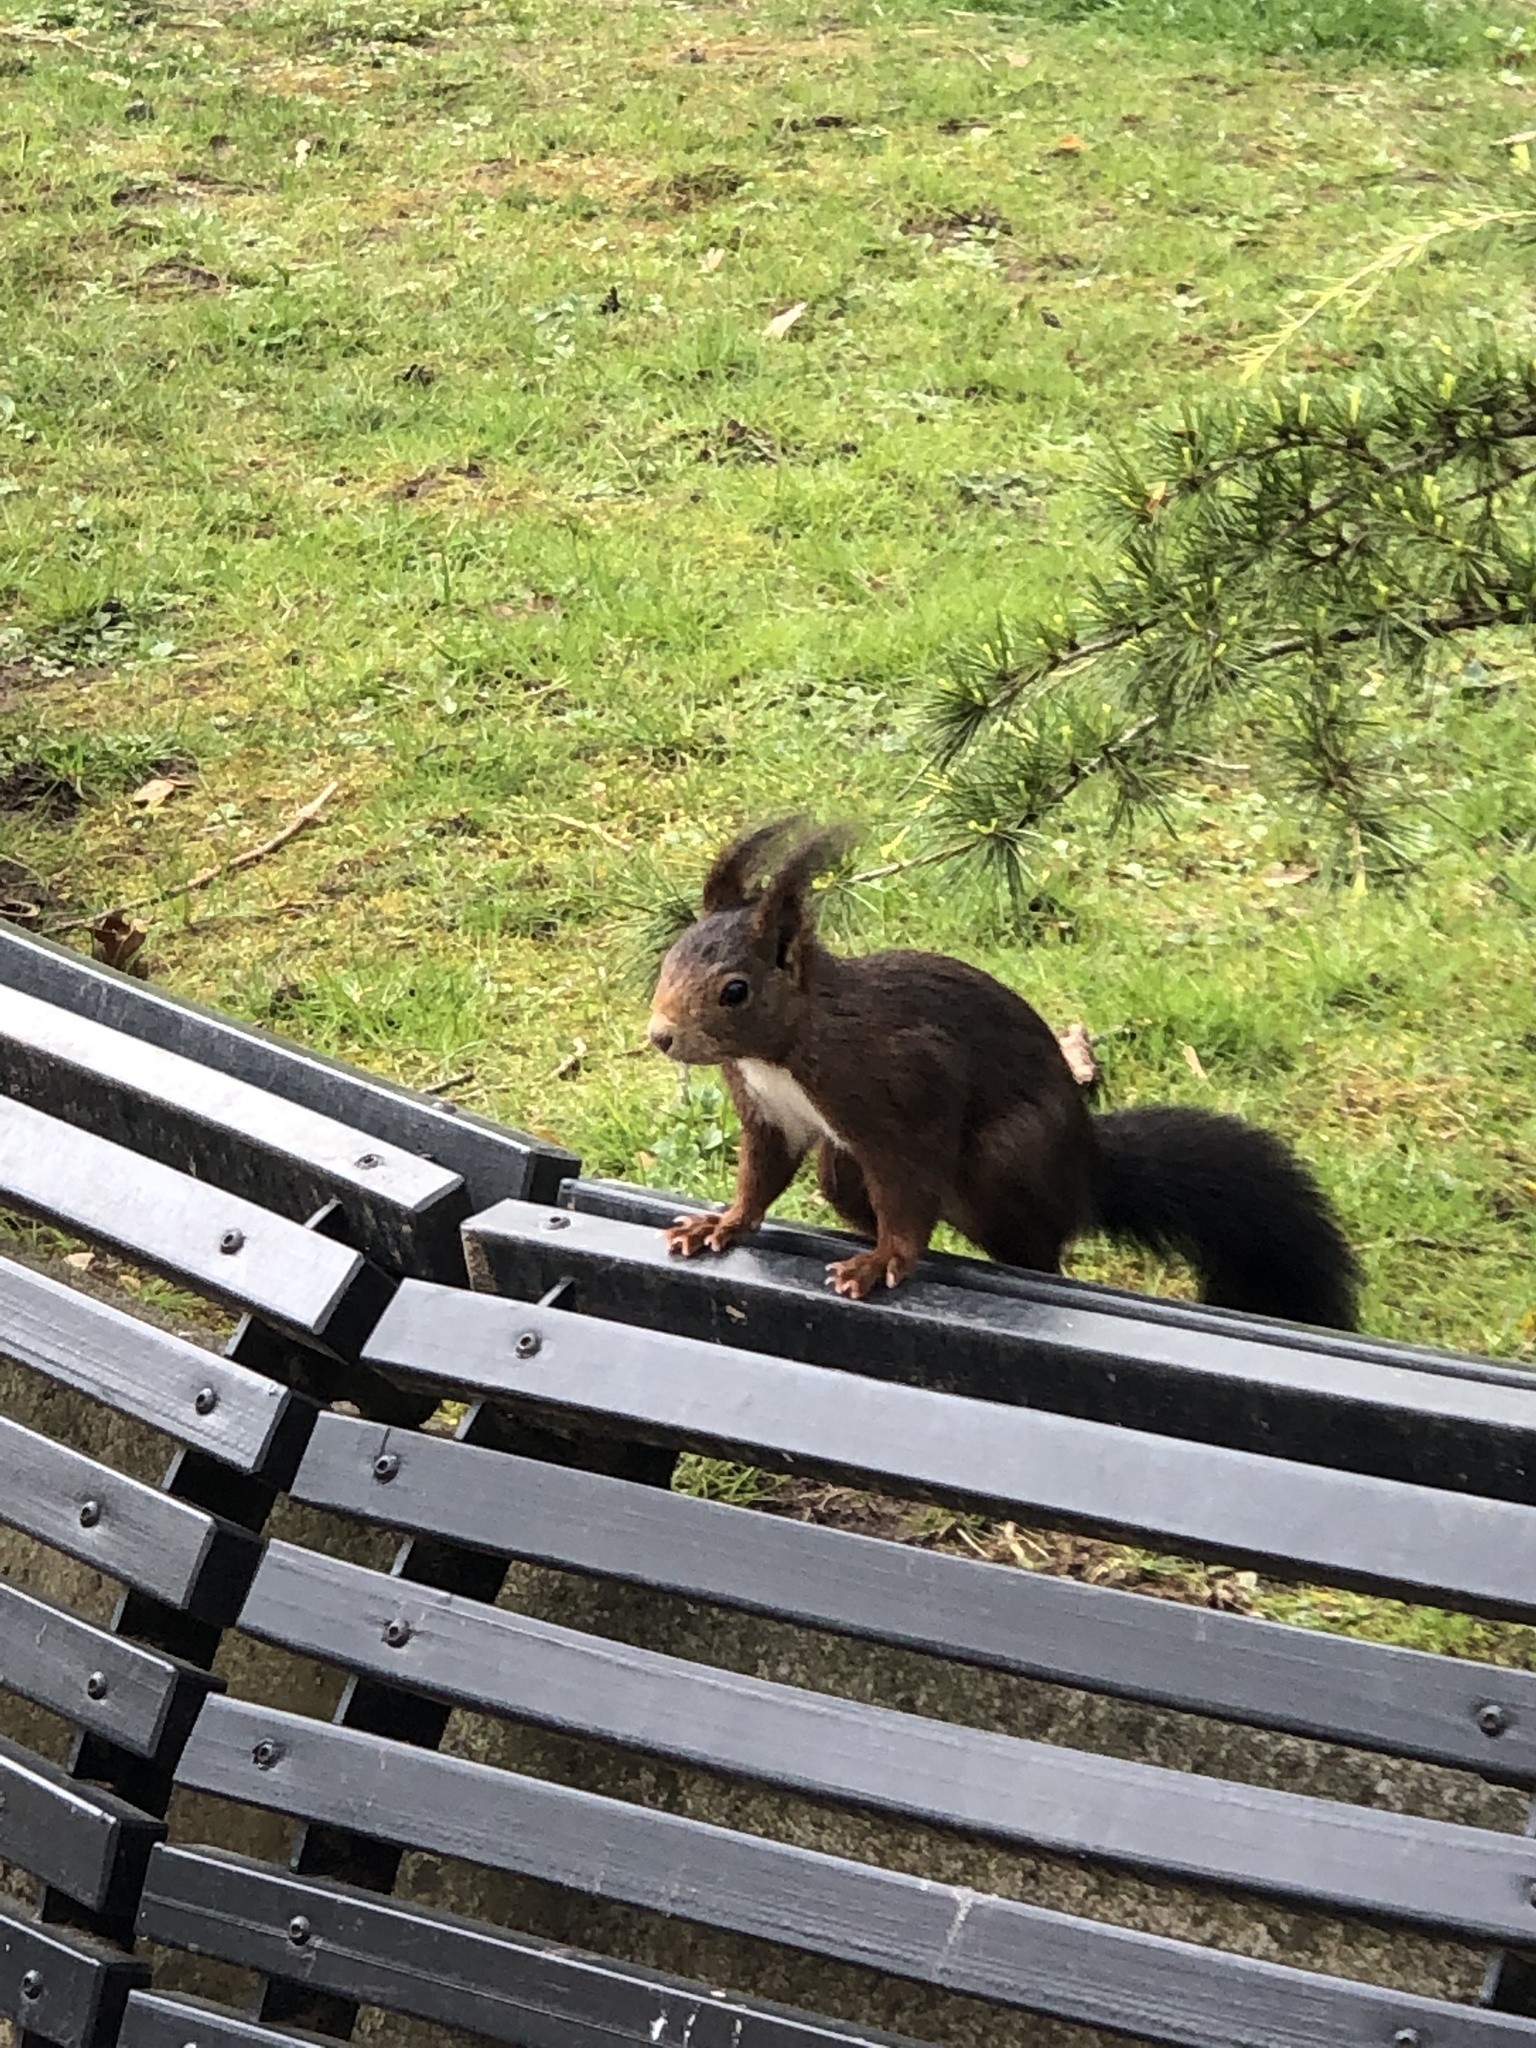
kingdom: Animalia
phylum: Chordata
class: Mammalia
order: Rodentia
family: Sciuridae
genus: Sciurus
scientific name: Sciurus vulgaris
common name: Eurasian red squirrel
